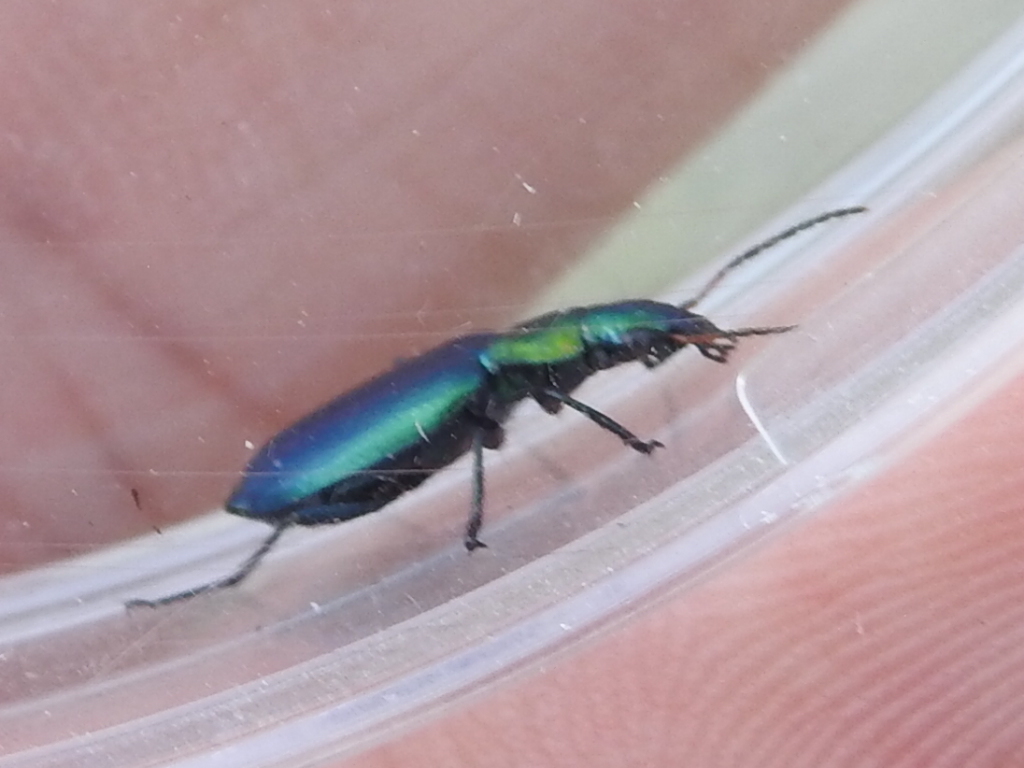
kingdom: Animalia
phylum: Arthropoda
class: Insecta
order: Coleoptera
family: Carabidae
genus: Philophuga
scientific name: Philophuga viridicollis
